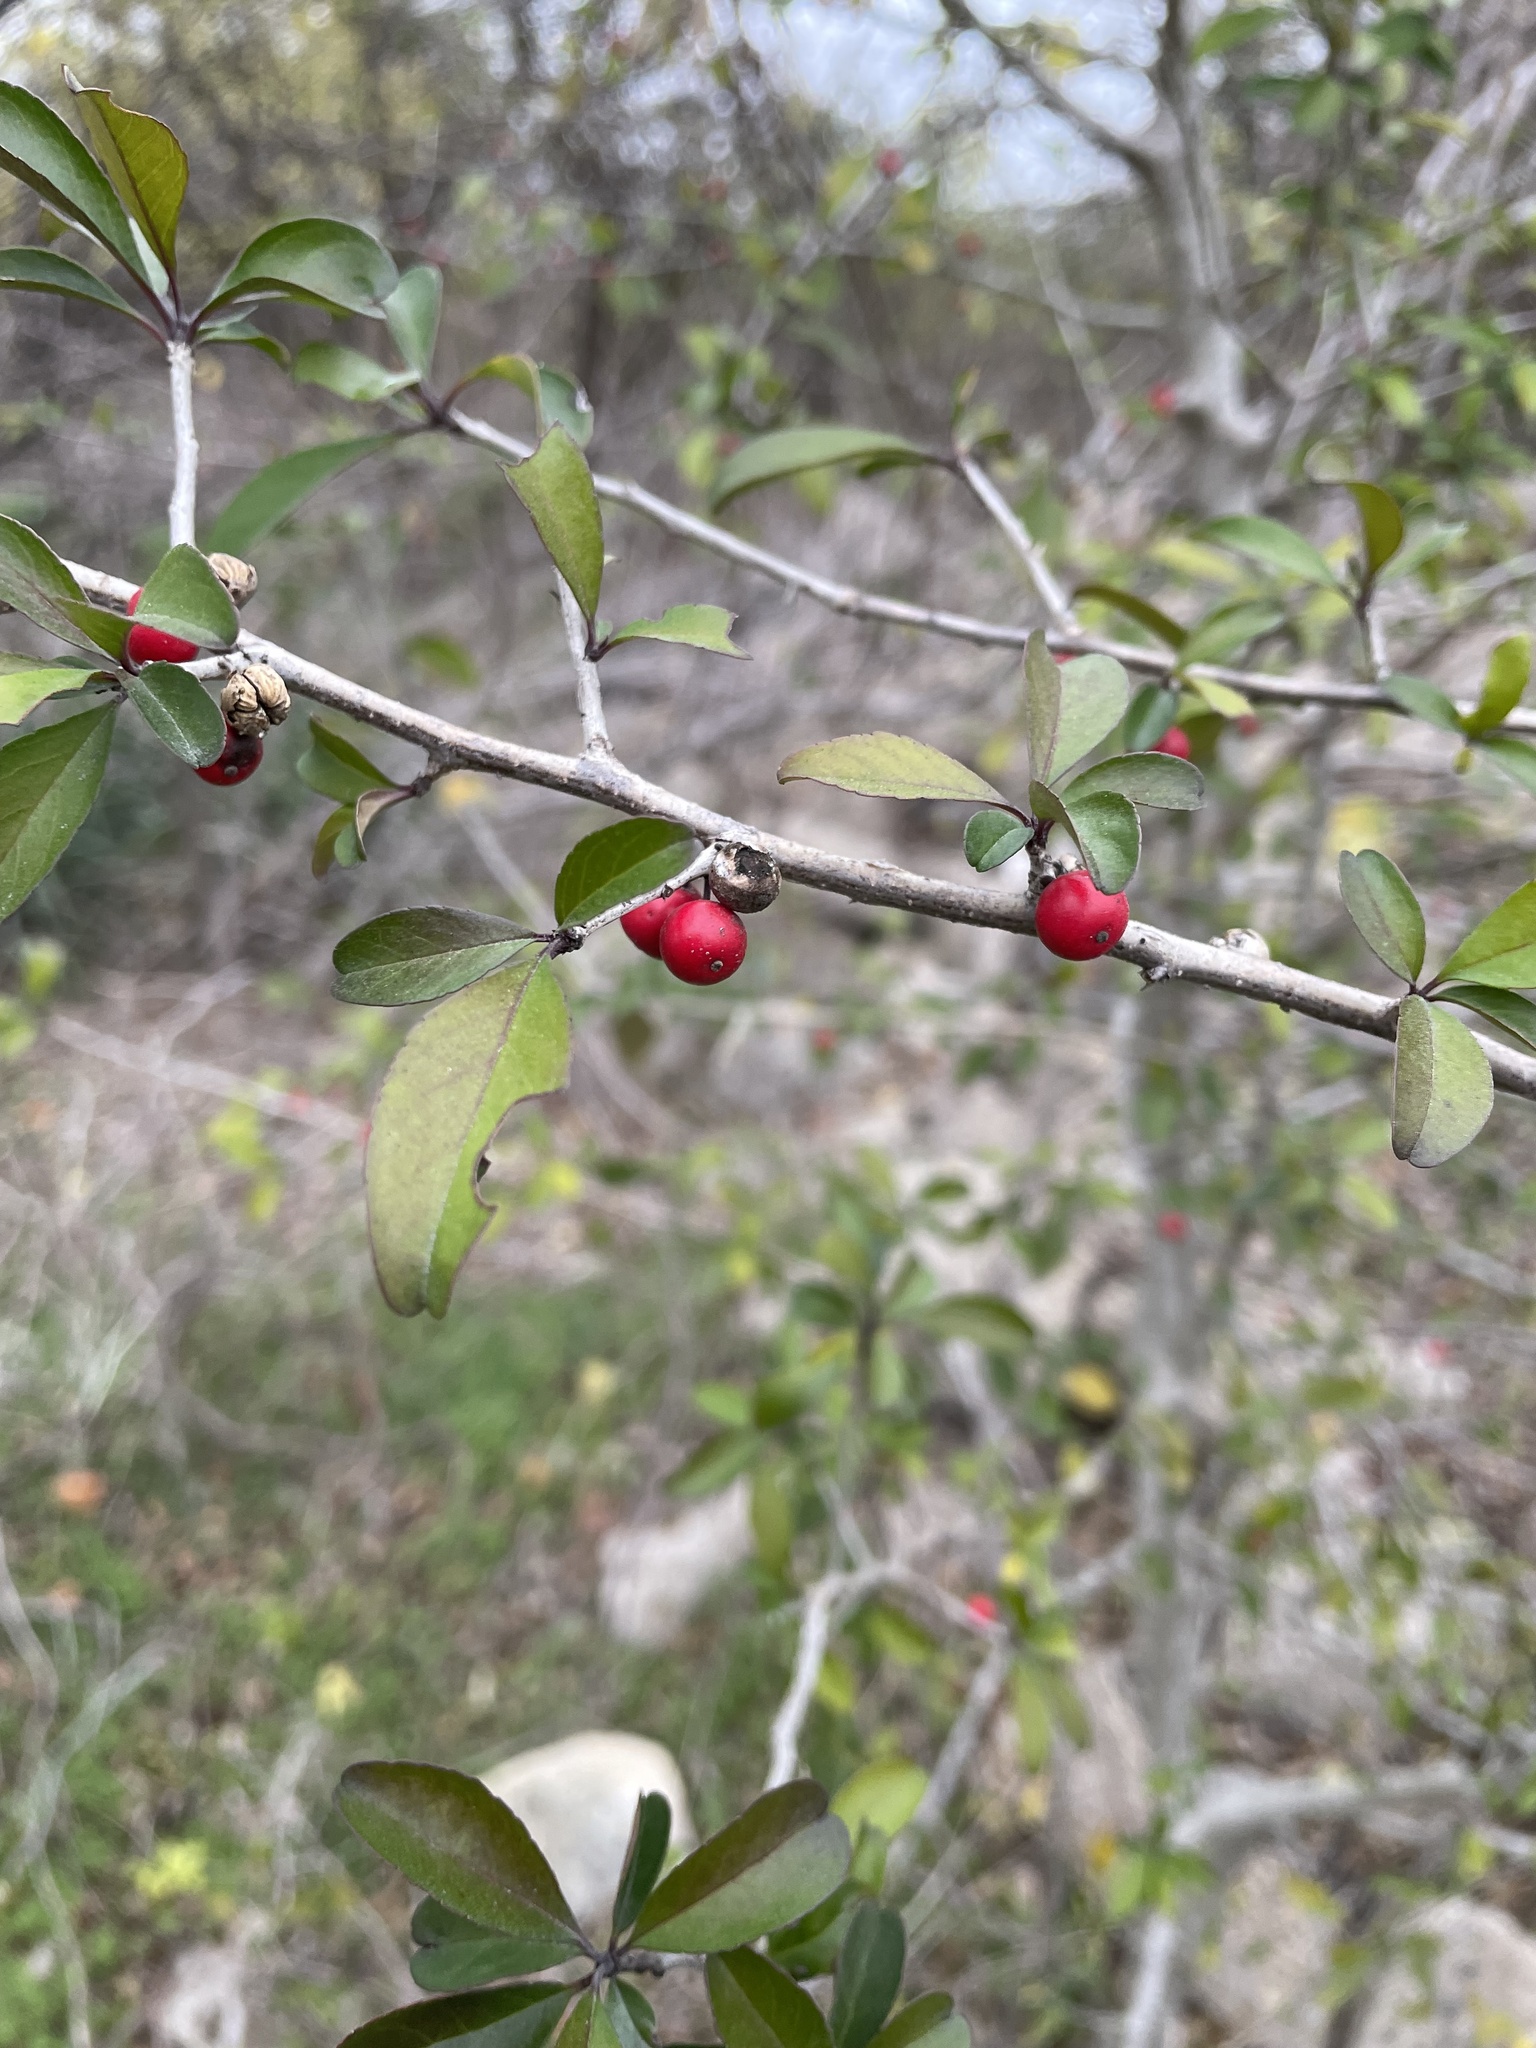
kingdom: Plantae
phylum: Tracheophyta
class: Magnoliopsida
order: Aquifoliales
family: Aquifoliaceae
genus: Ilex
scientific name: Ilex decidua
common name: Possum-haw
